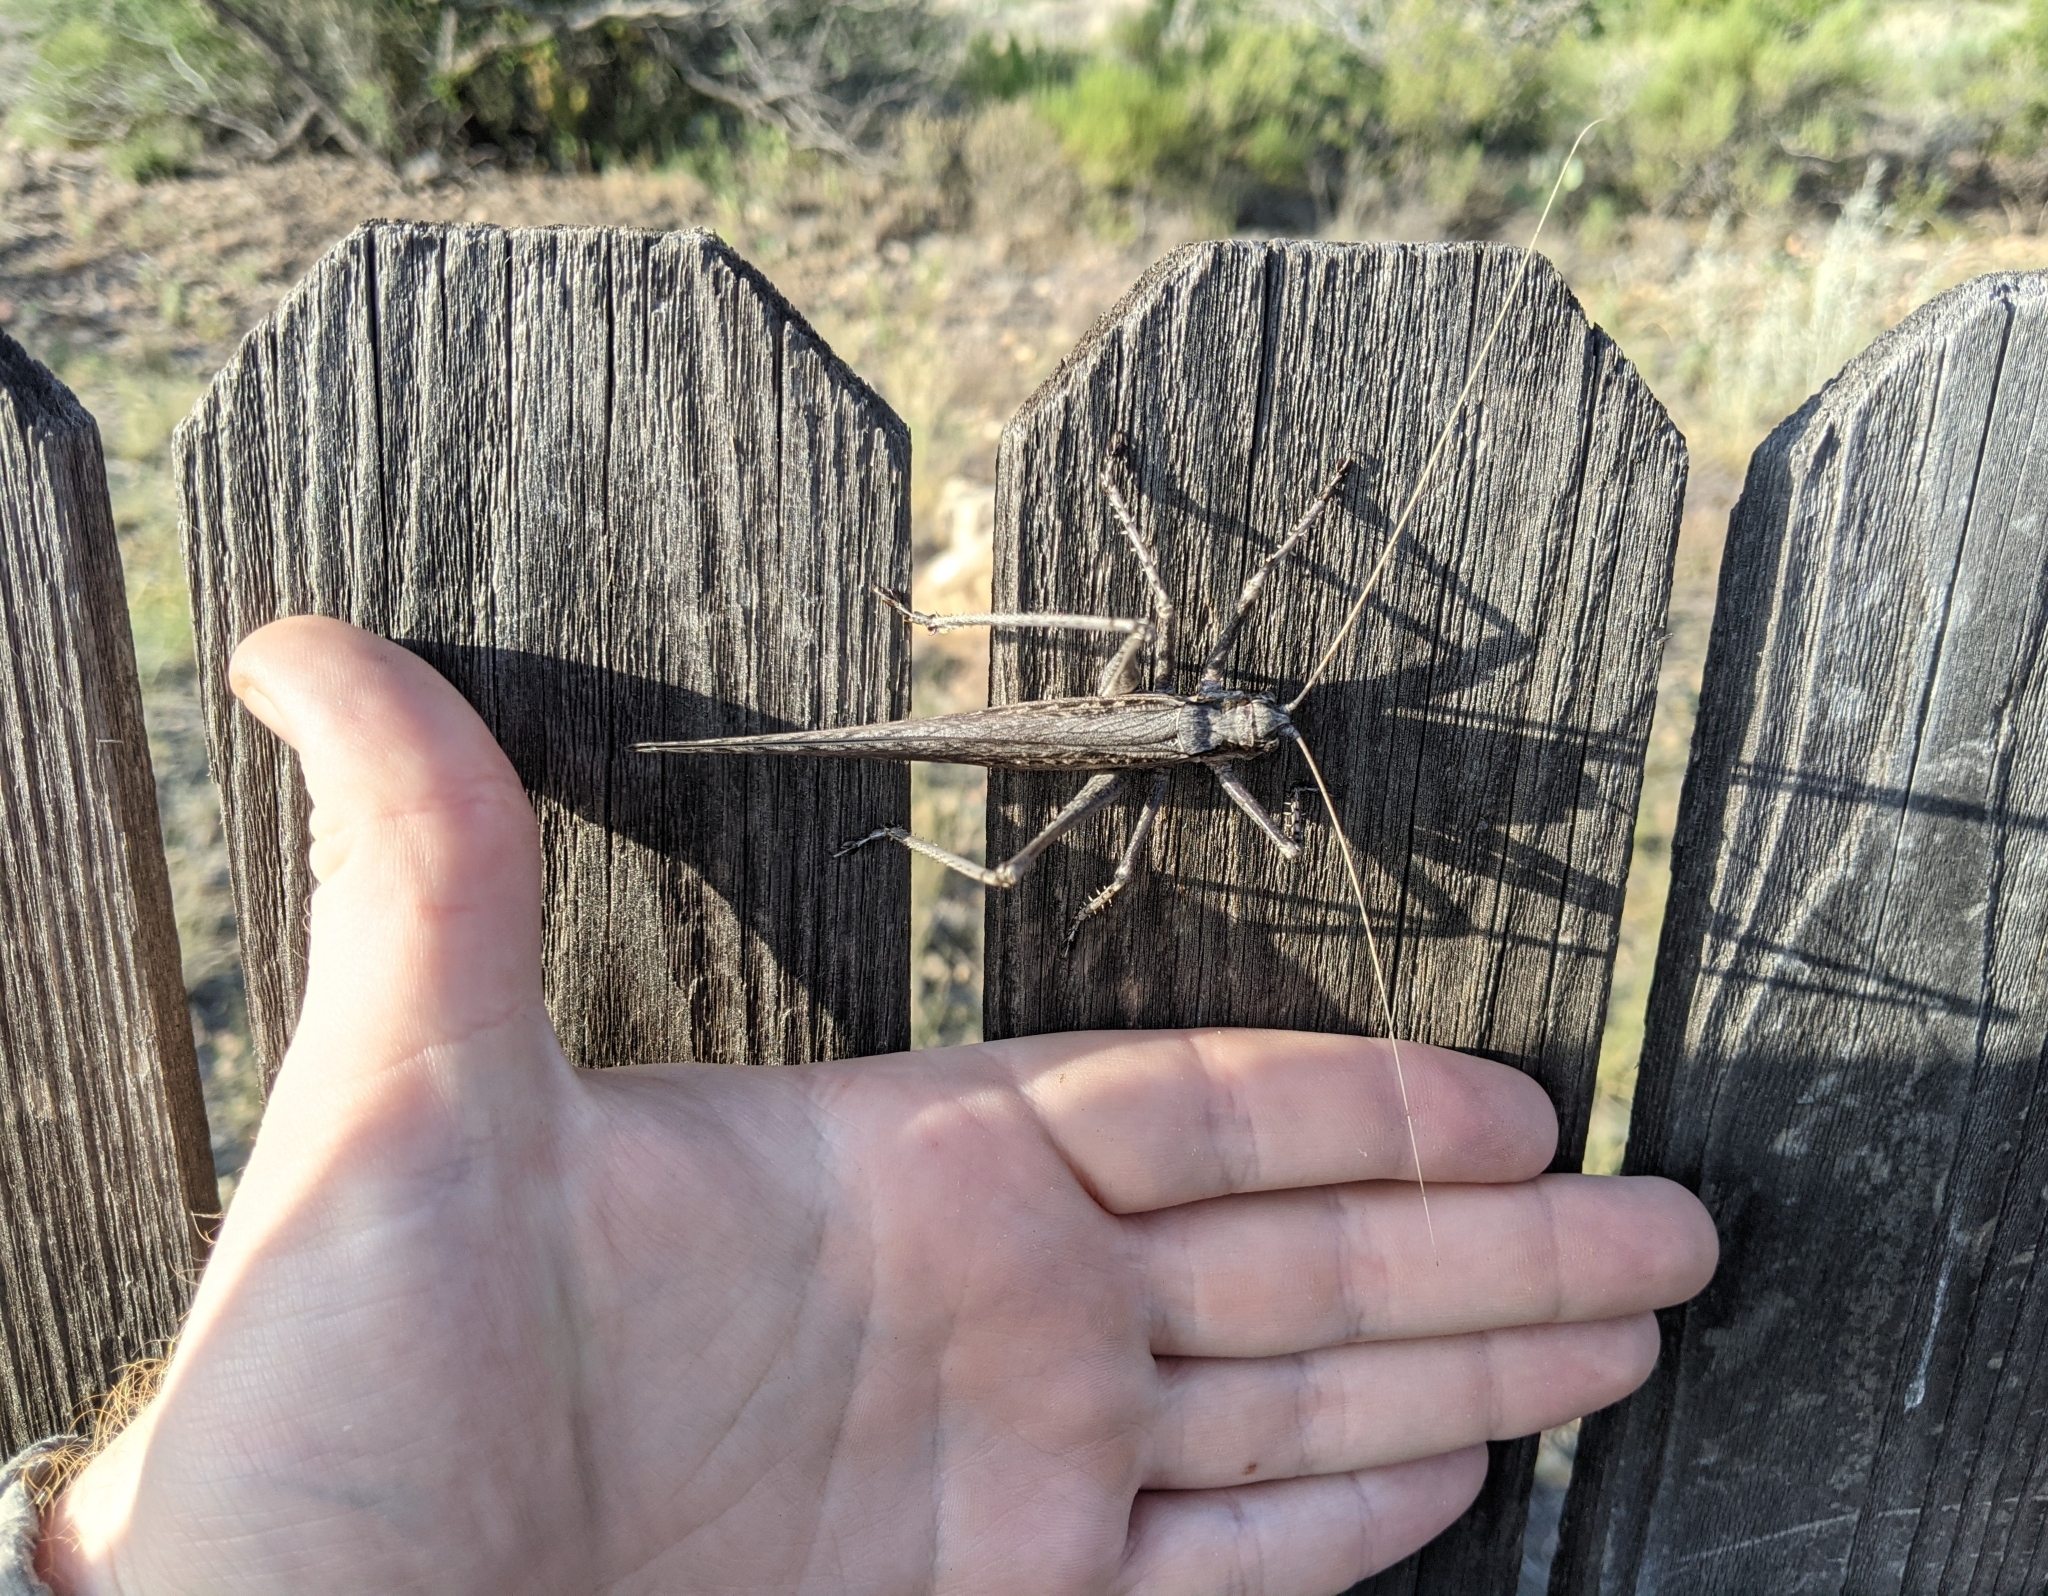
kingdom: Animalia
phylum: Arthropoda
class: Insecta
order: Orthoptera
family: Tettigoniidae
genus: Capnobotes
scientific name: Capnobotes fuliginosus
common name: Sooty longwing
